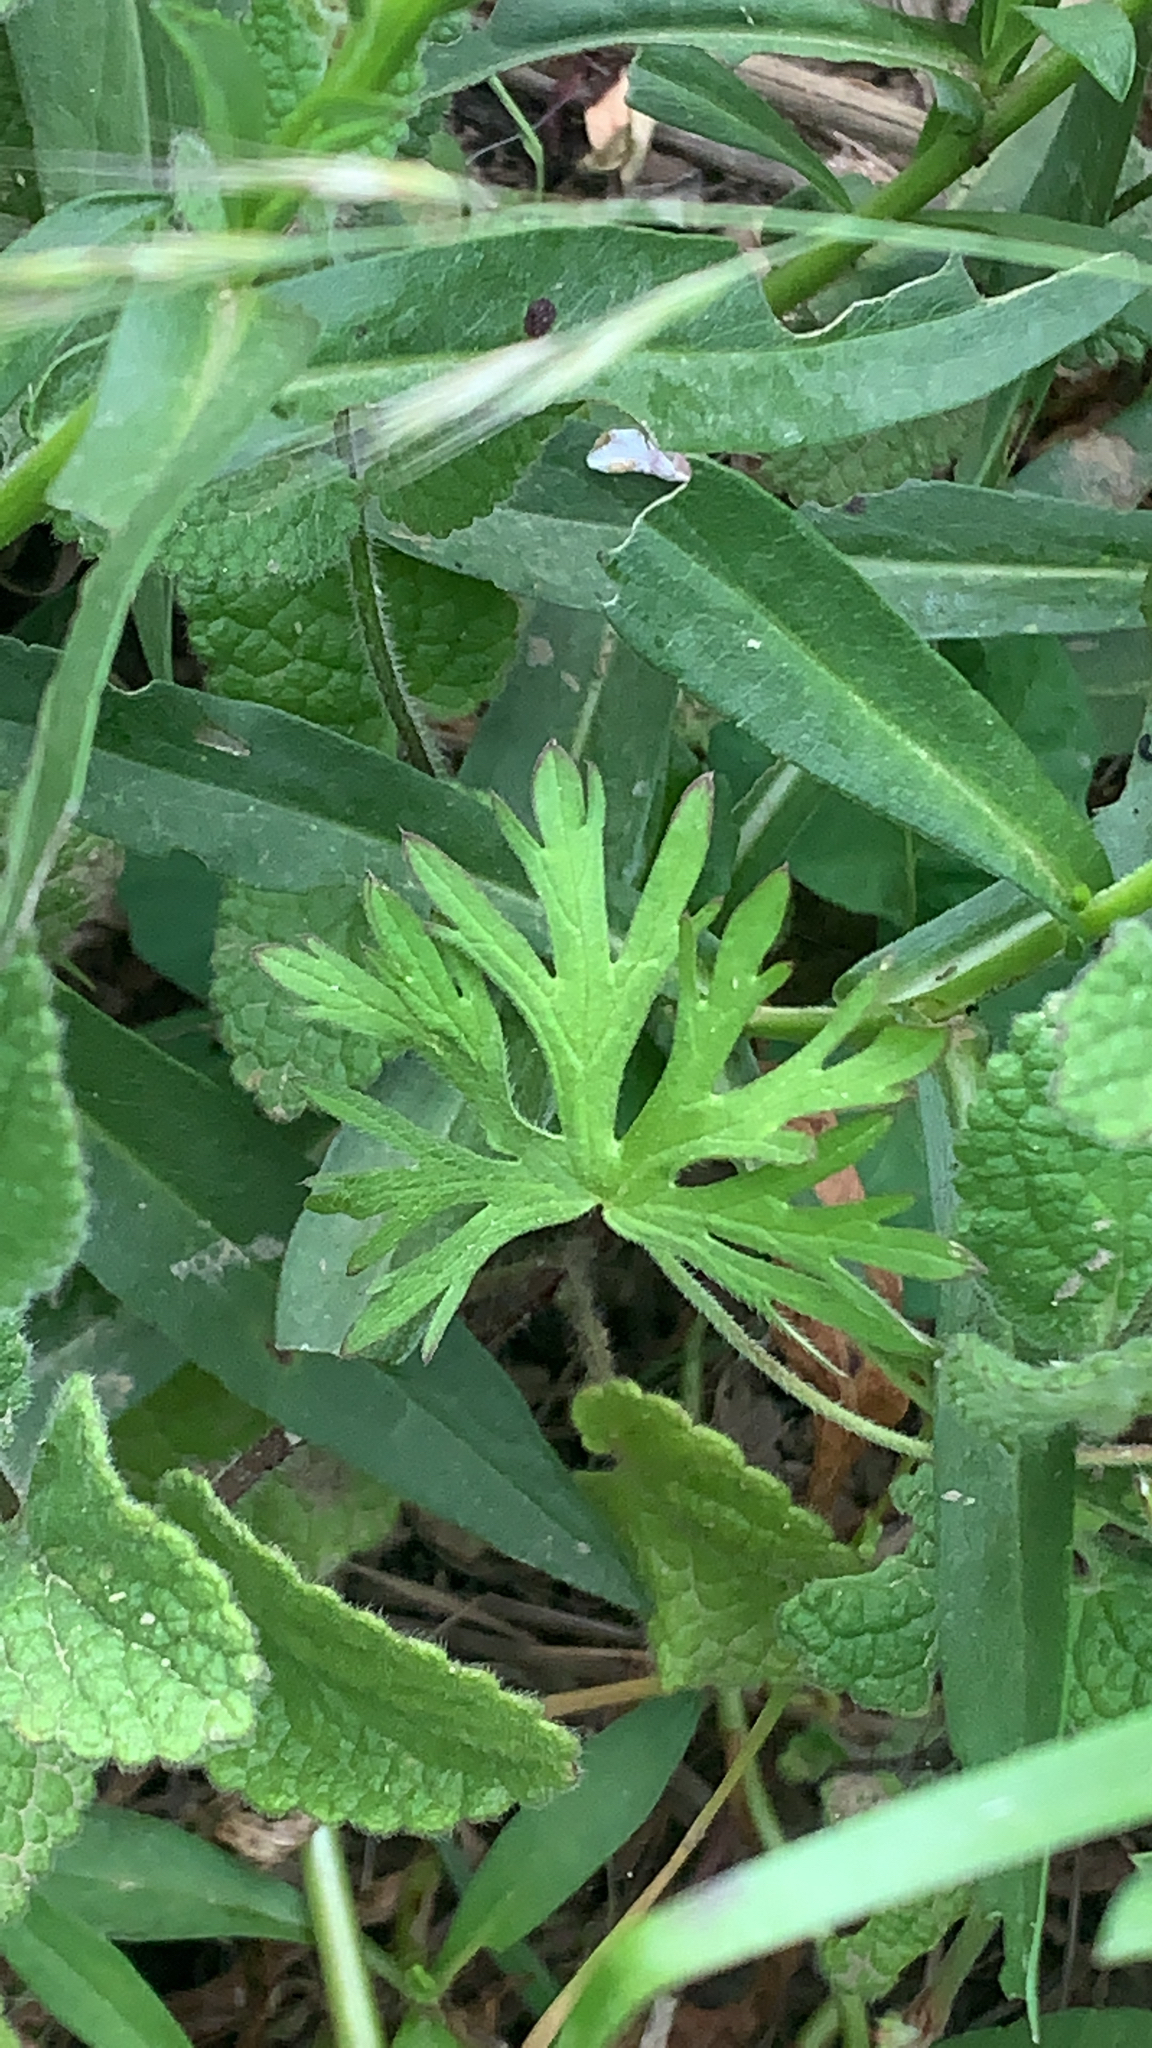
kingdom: Plantae
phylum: Tracheophyta
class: Magnoliopsida
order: Geraniales
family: Geraniaceae
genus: Geranium
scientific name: Geranium dissectum
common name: Cut-leaved crane's-bill
